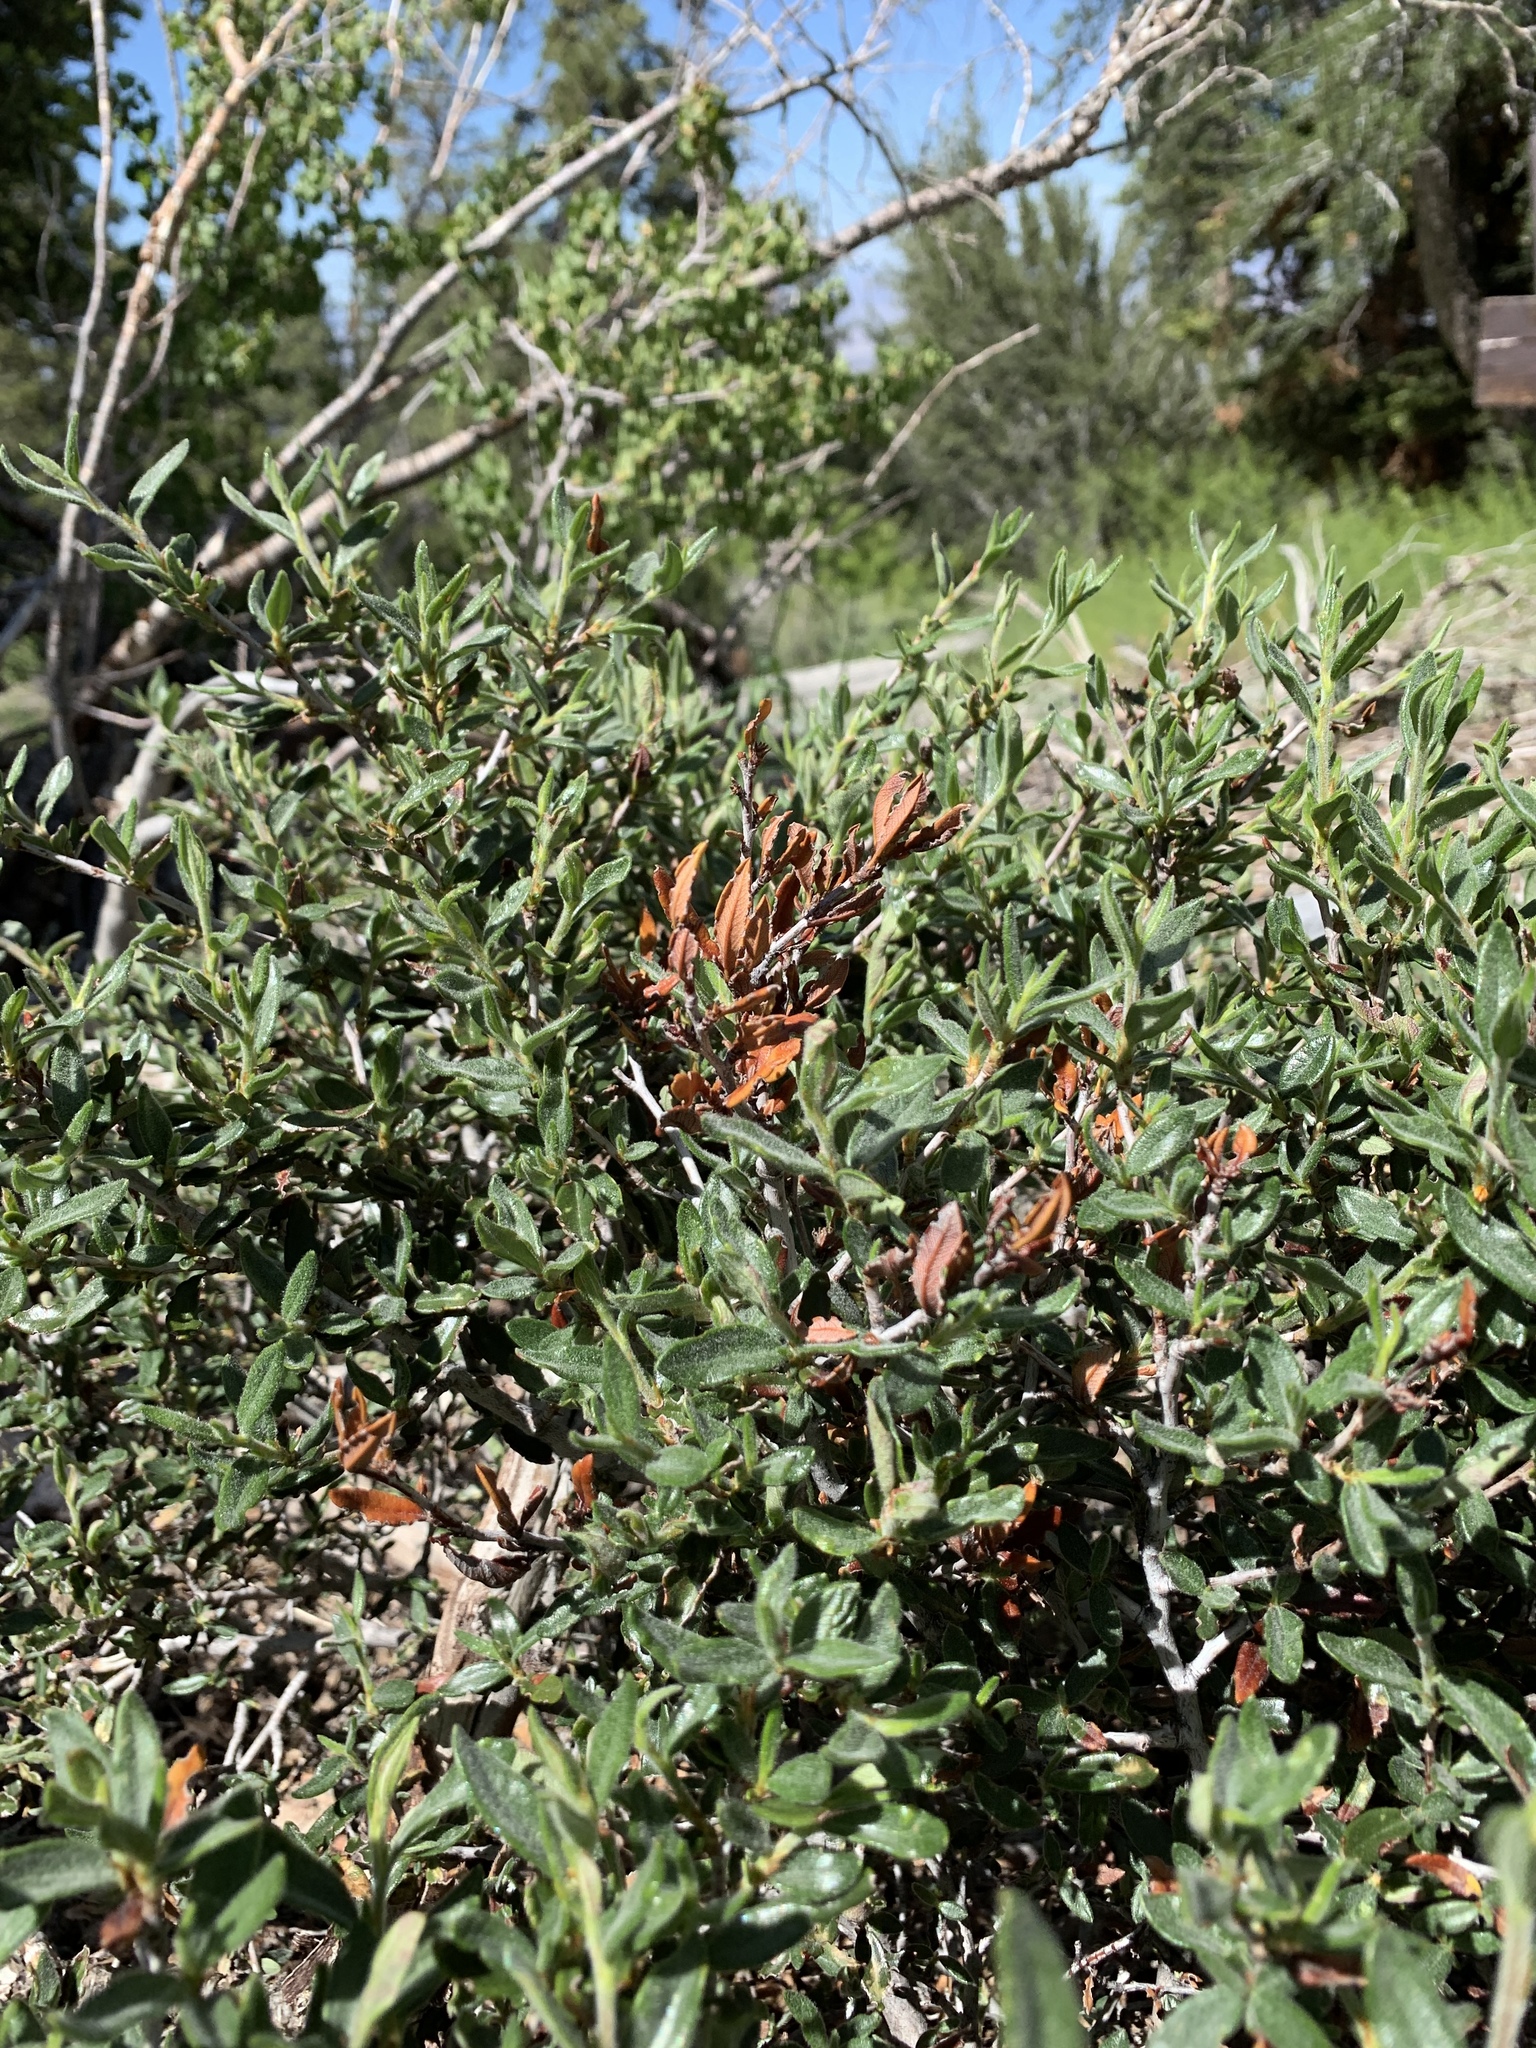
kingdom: Plantae
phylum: Tracheophyta
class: Magnoliopsida
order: Rosales
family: Rosaceae
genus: Cercocarpus
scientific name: Cercocarpus ledifolius
